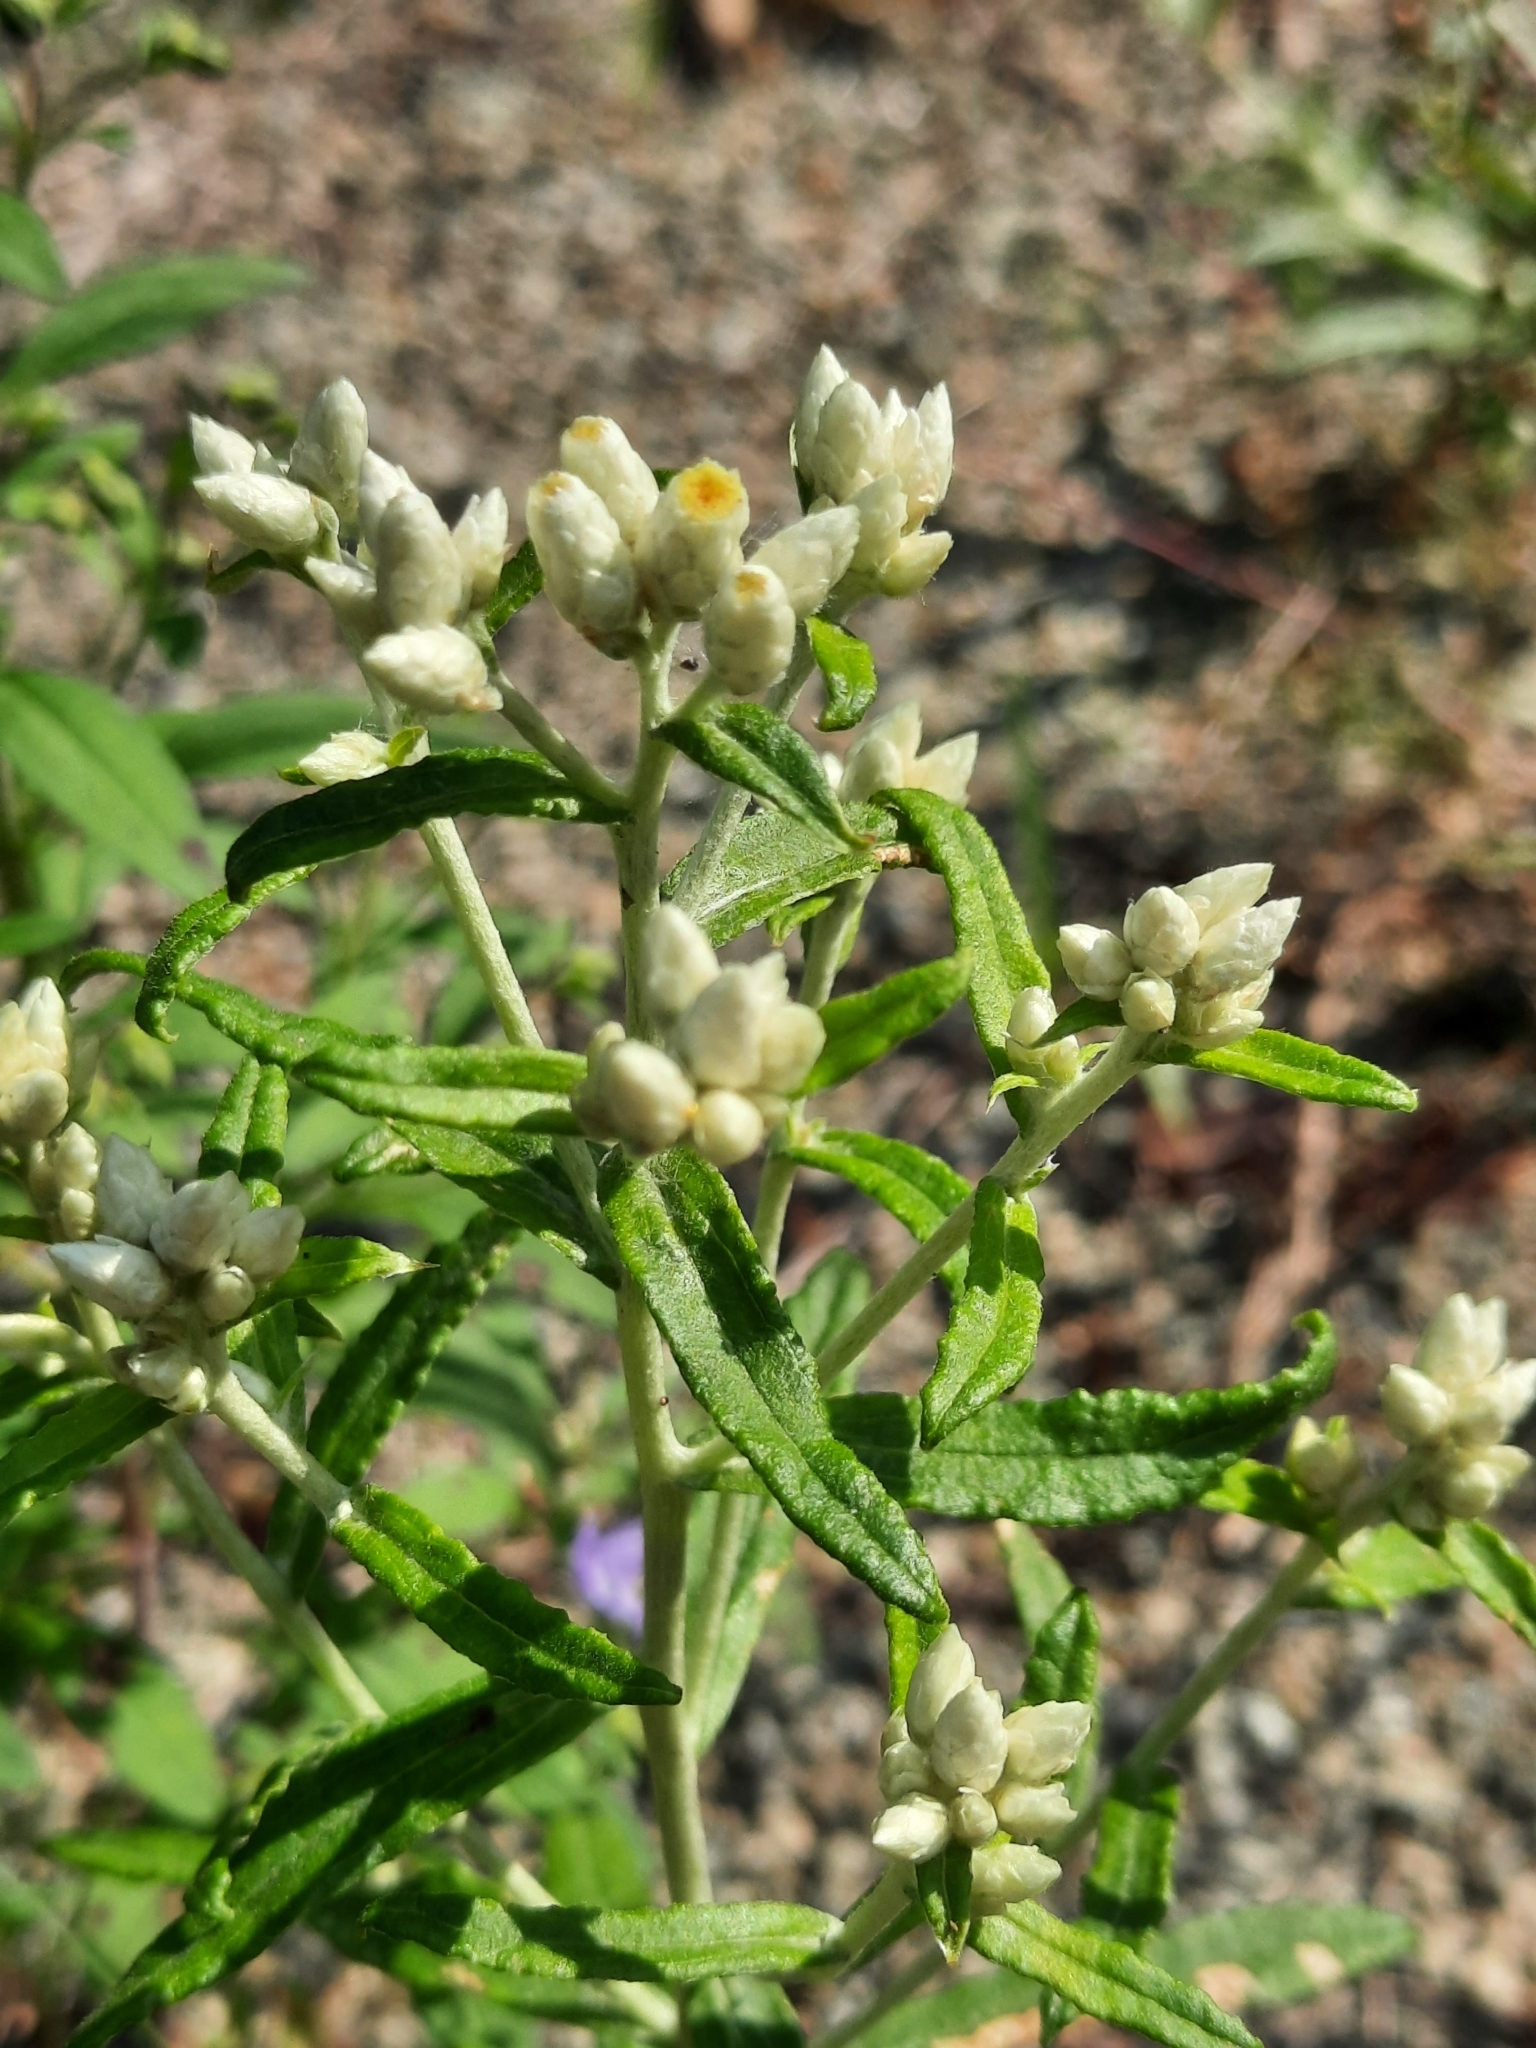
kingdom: Plantae
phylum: Tracheophyta
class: Magnoliopsida
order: Asterales
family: Asteraceae
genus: Pseudognaphalium
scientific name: Pseudognaphalium obtusifolium
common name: Eastern rabbit-tobacco
